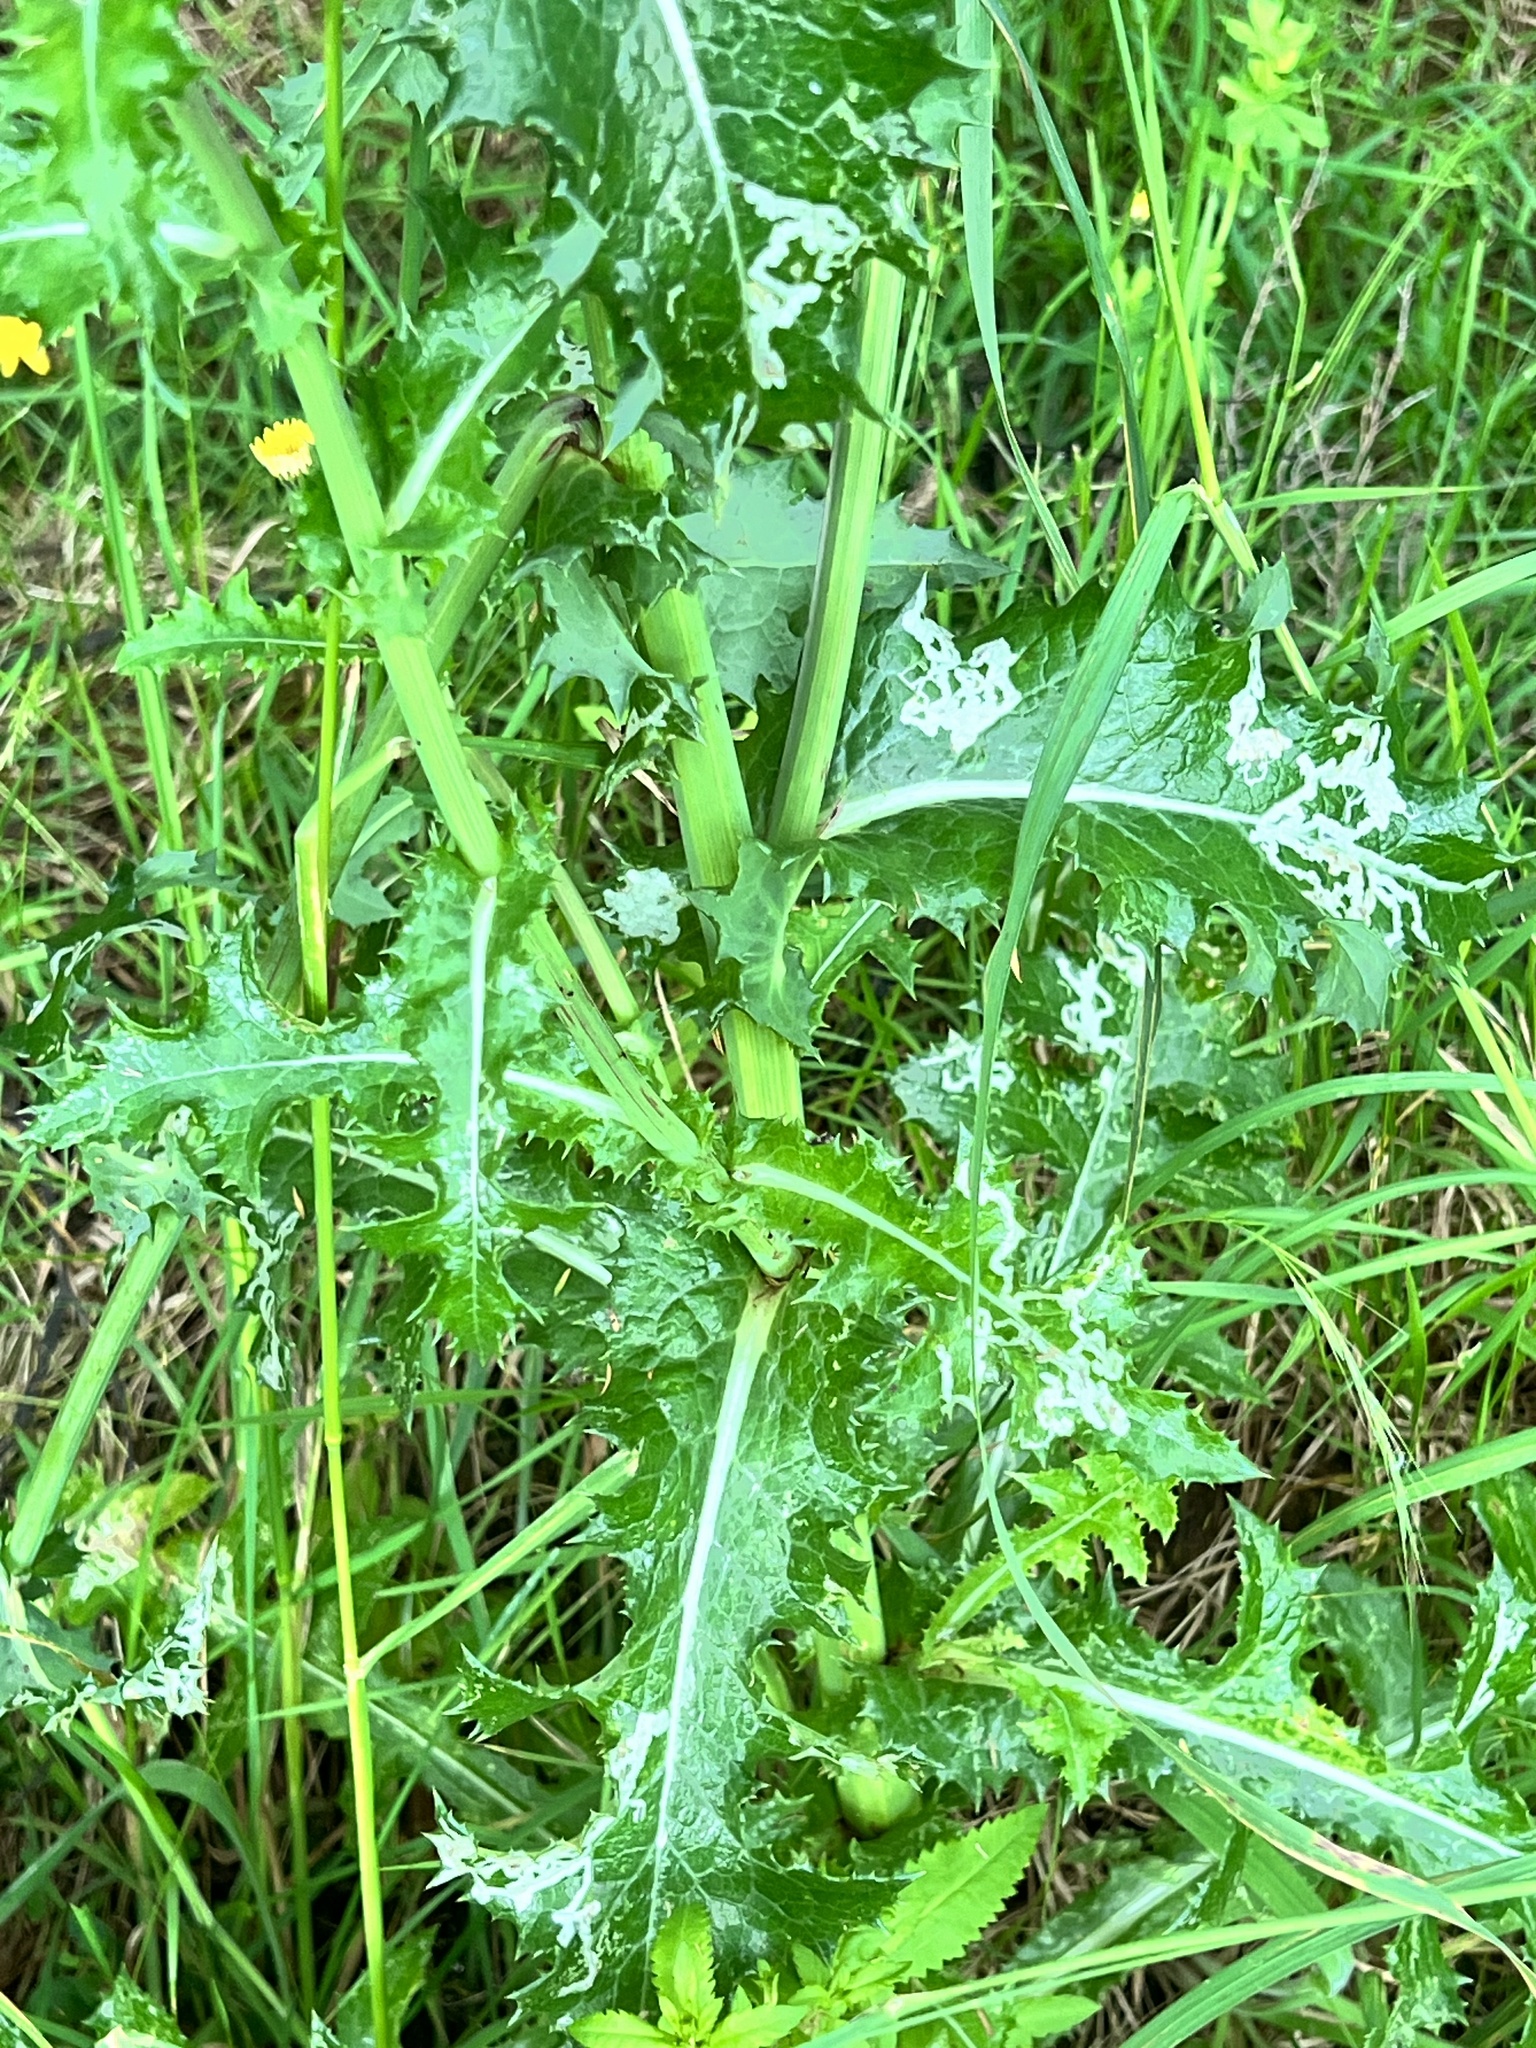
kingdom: Plantae
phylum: Tracheophyta
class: Magnoliopsida
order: Asterales
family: Asteraceae
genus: Sonchus
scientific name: Sonchus asper
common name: Prickly sow-thistle
